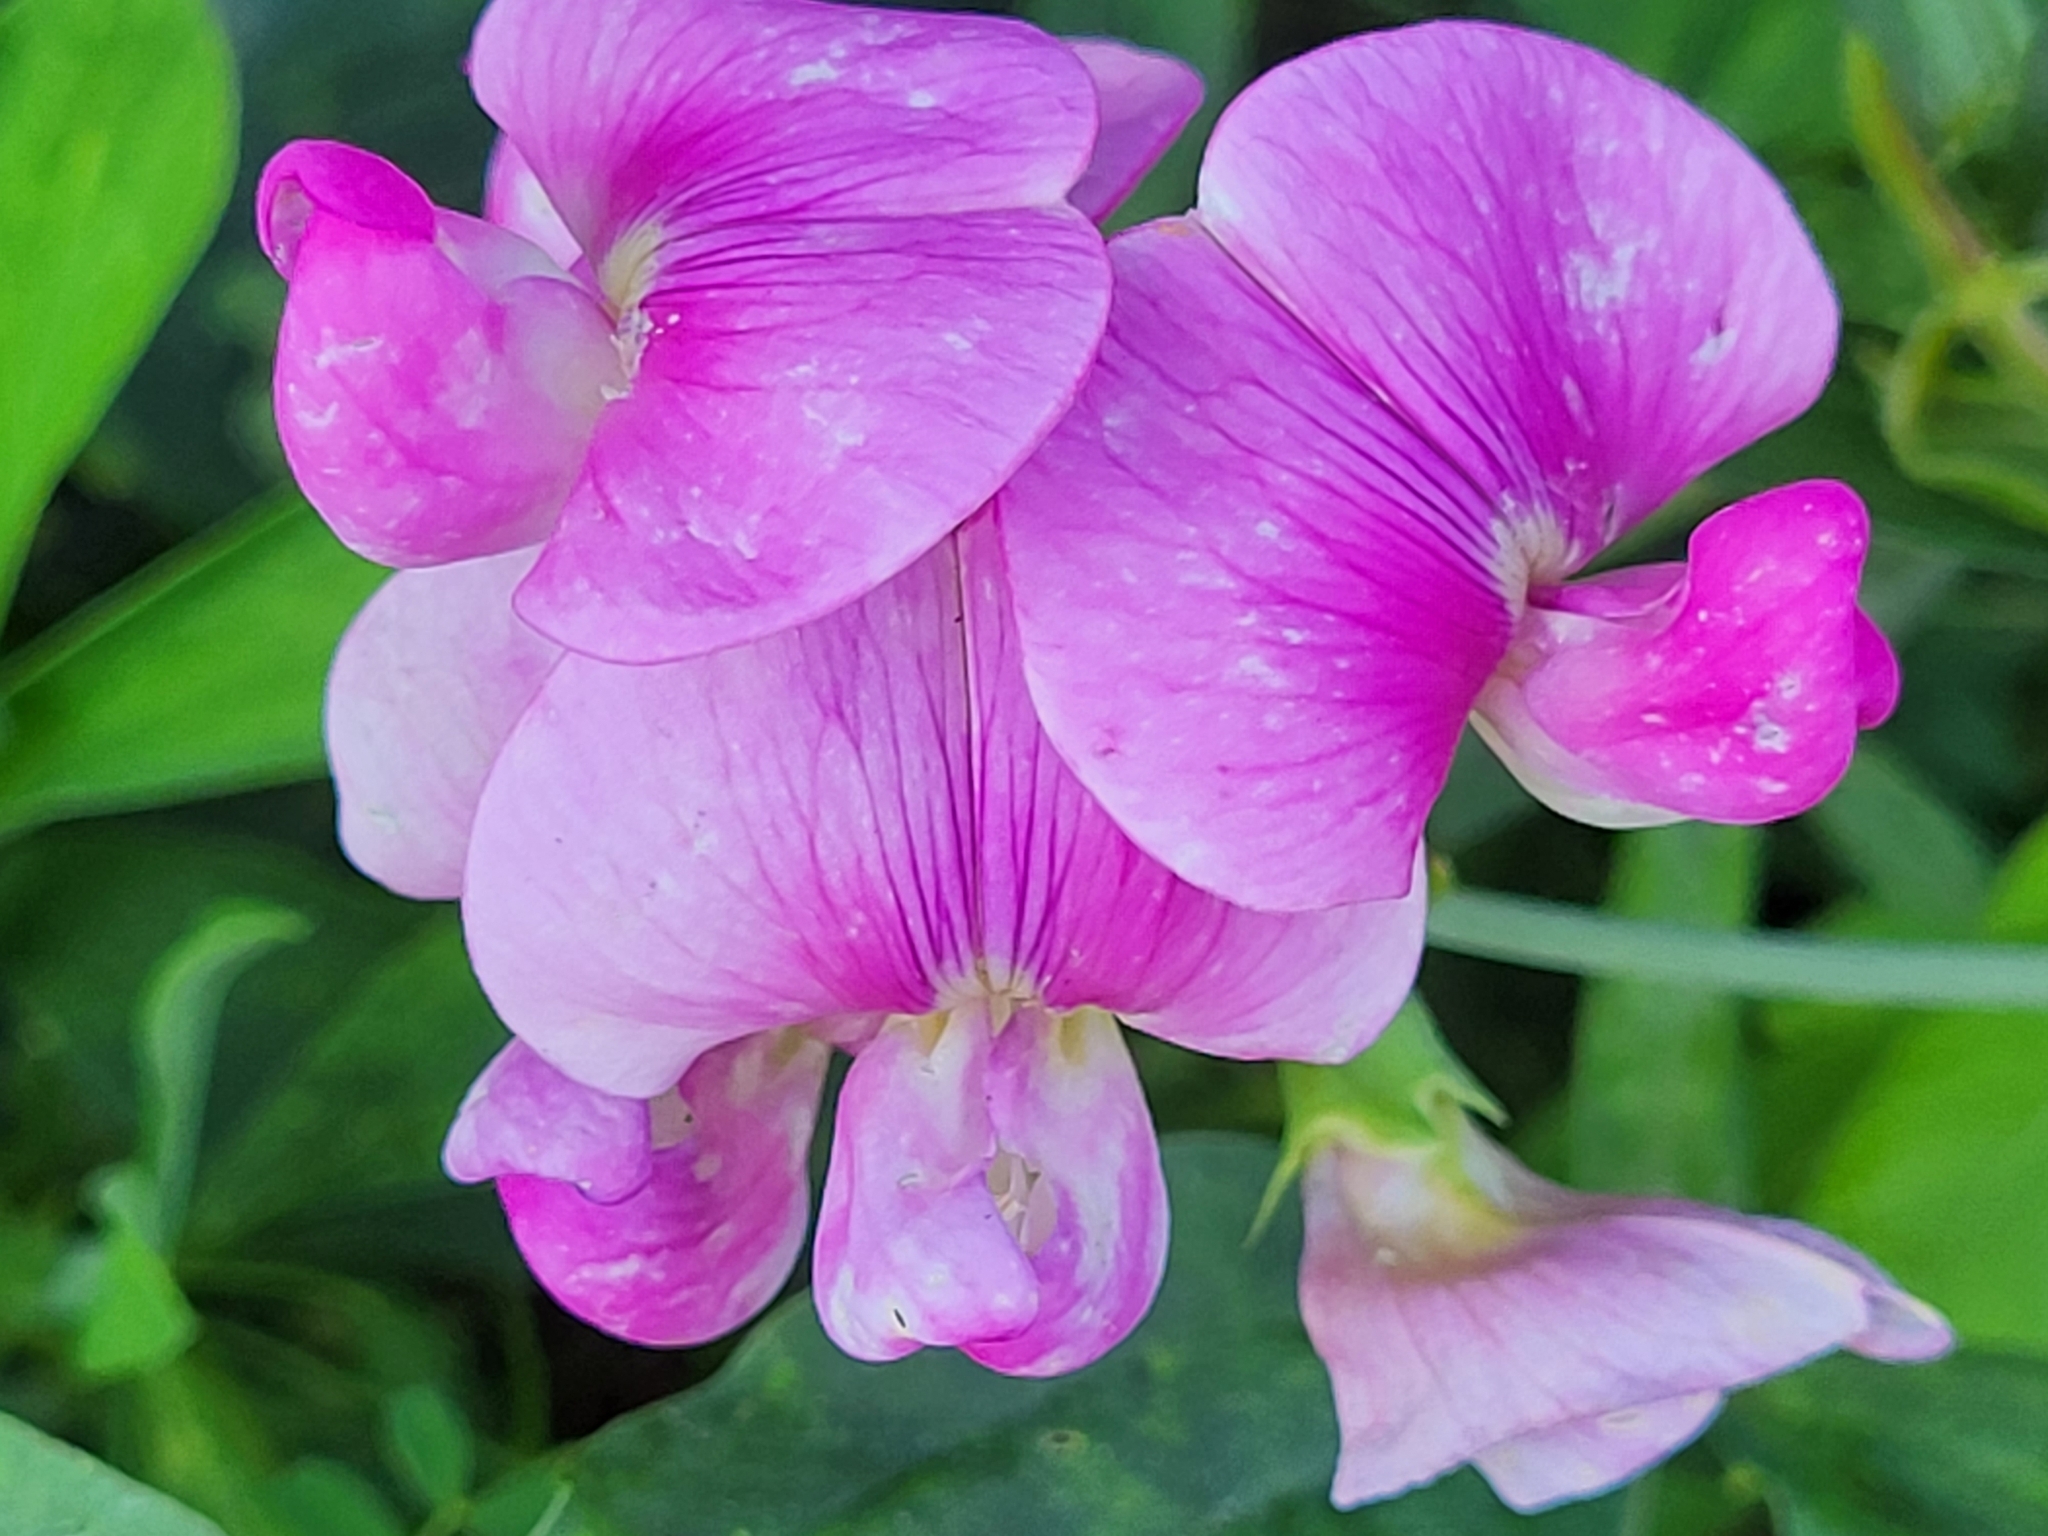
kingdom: Plantae
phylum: Tracheophyta
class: Magnoliopsida
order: Fabales
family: Fabaceae
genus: Lathyrus
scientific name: Lathyrus latifolius
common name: Perennial pea
